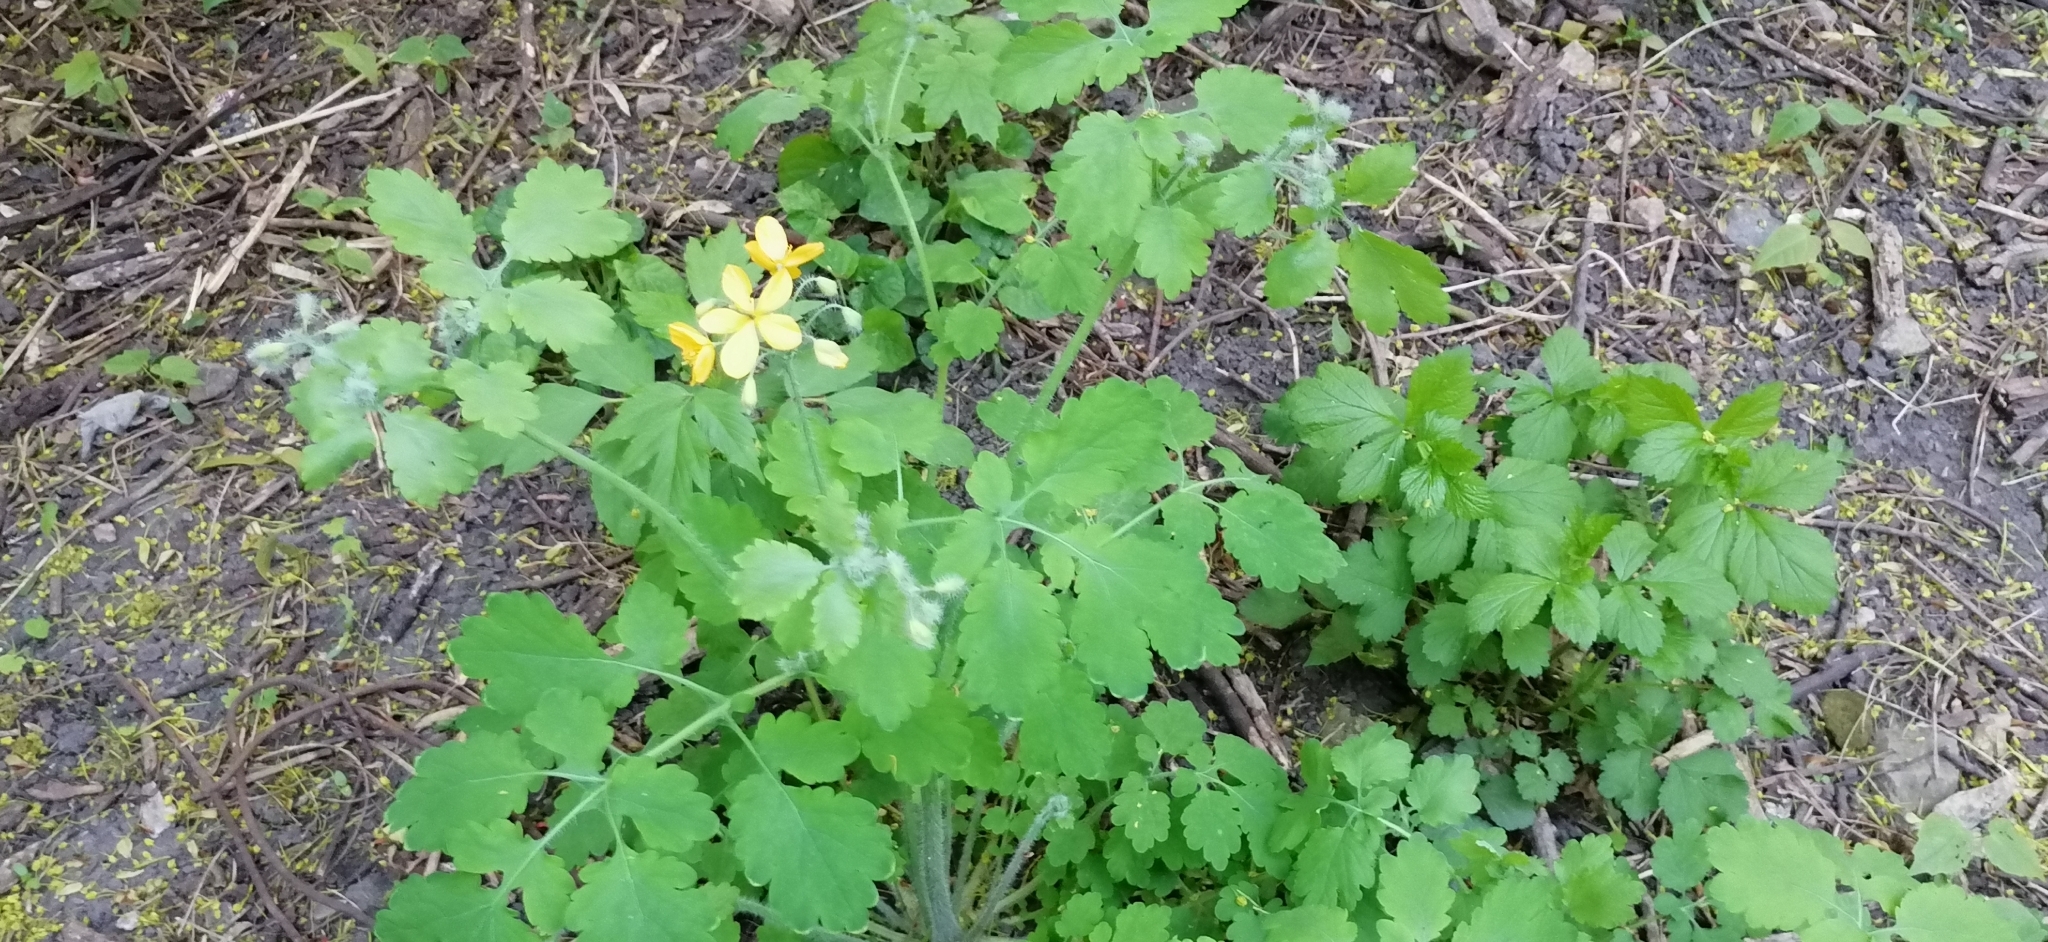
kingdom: Plantae
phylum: Tracheophyta
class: Magnoliopsida
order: Ranunculales
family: Papaveraceae
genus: Chelidonium
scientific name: Chelidonium majus
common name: Greater celandine
